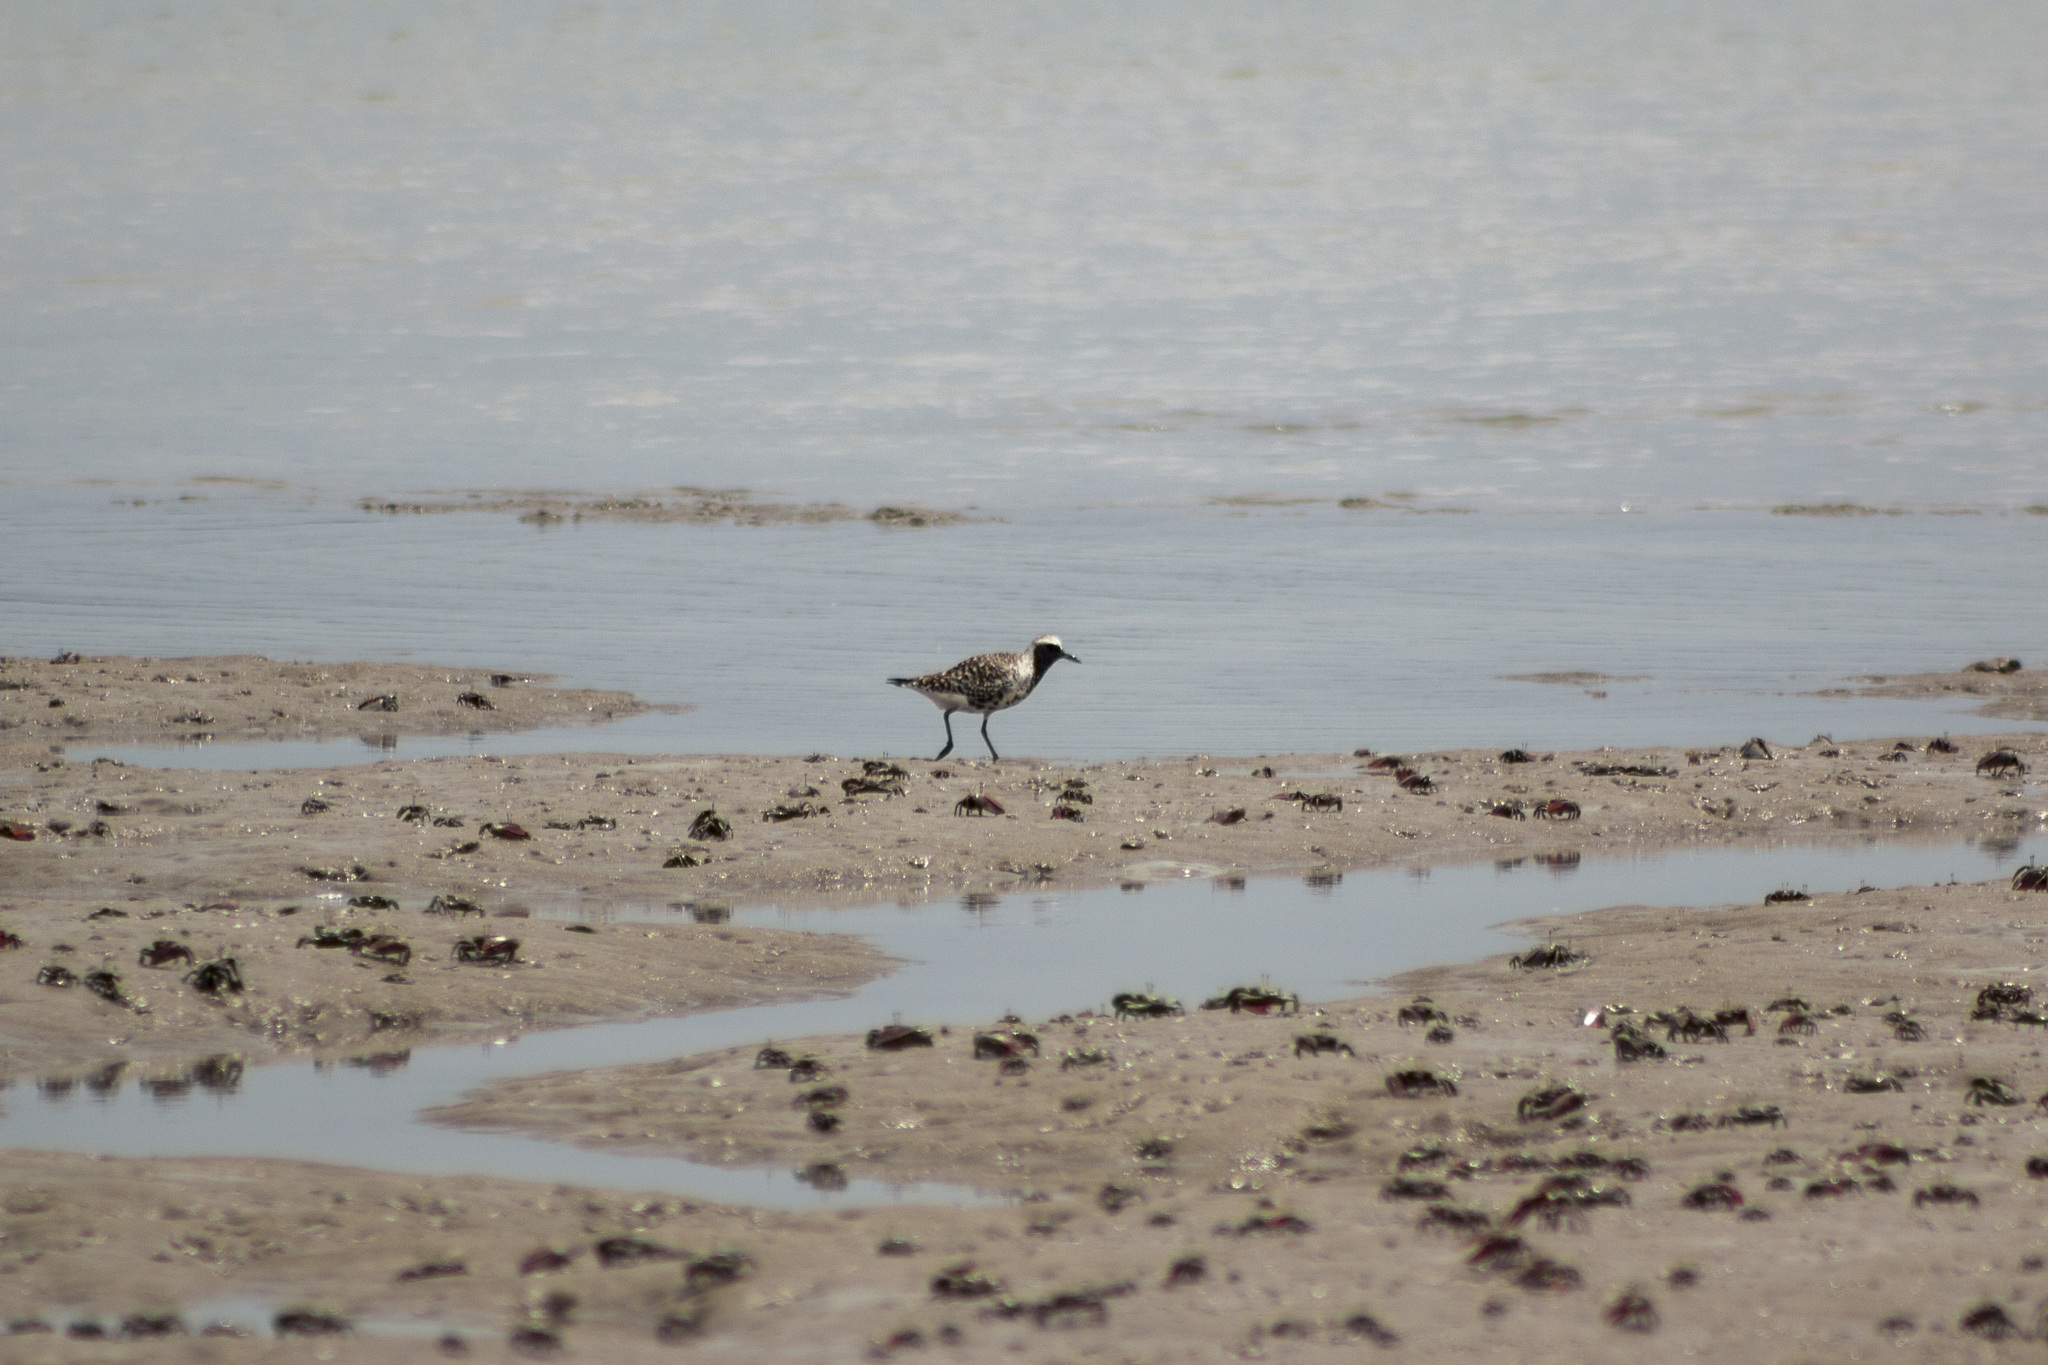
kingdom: Animalia
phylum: Chordata
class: Aves
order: Charadriiformes
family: Charadriidae
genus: Pluvialis
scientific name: Pluvialis squatarola
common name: Grey plover
